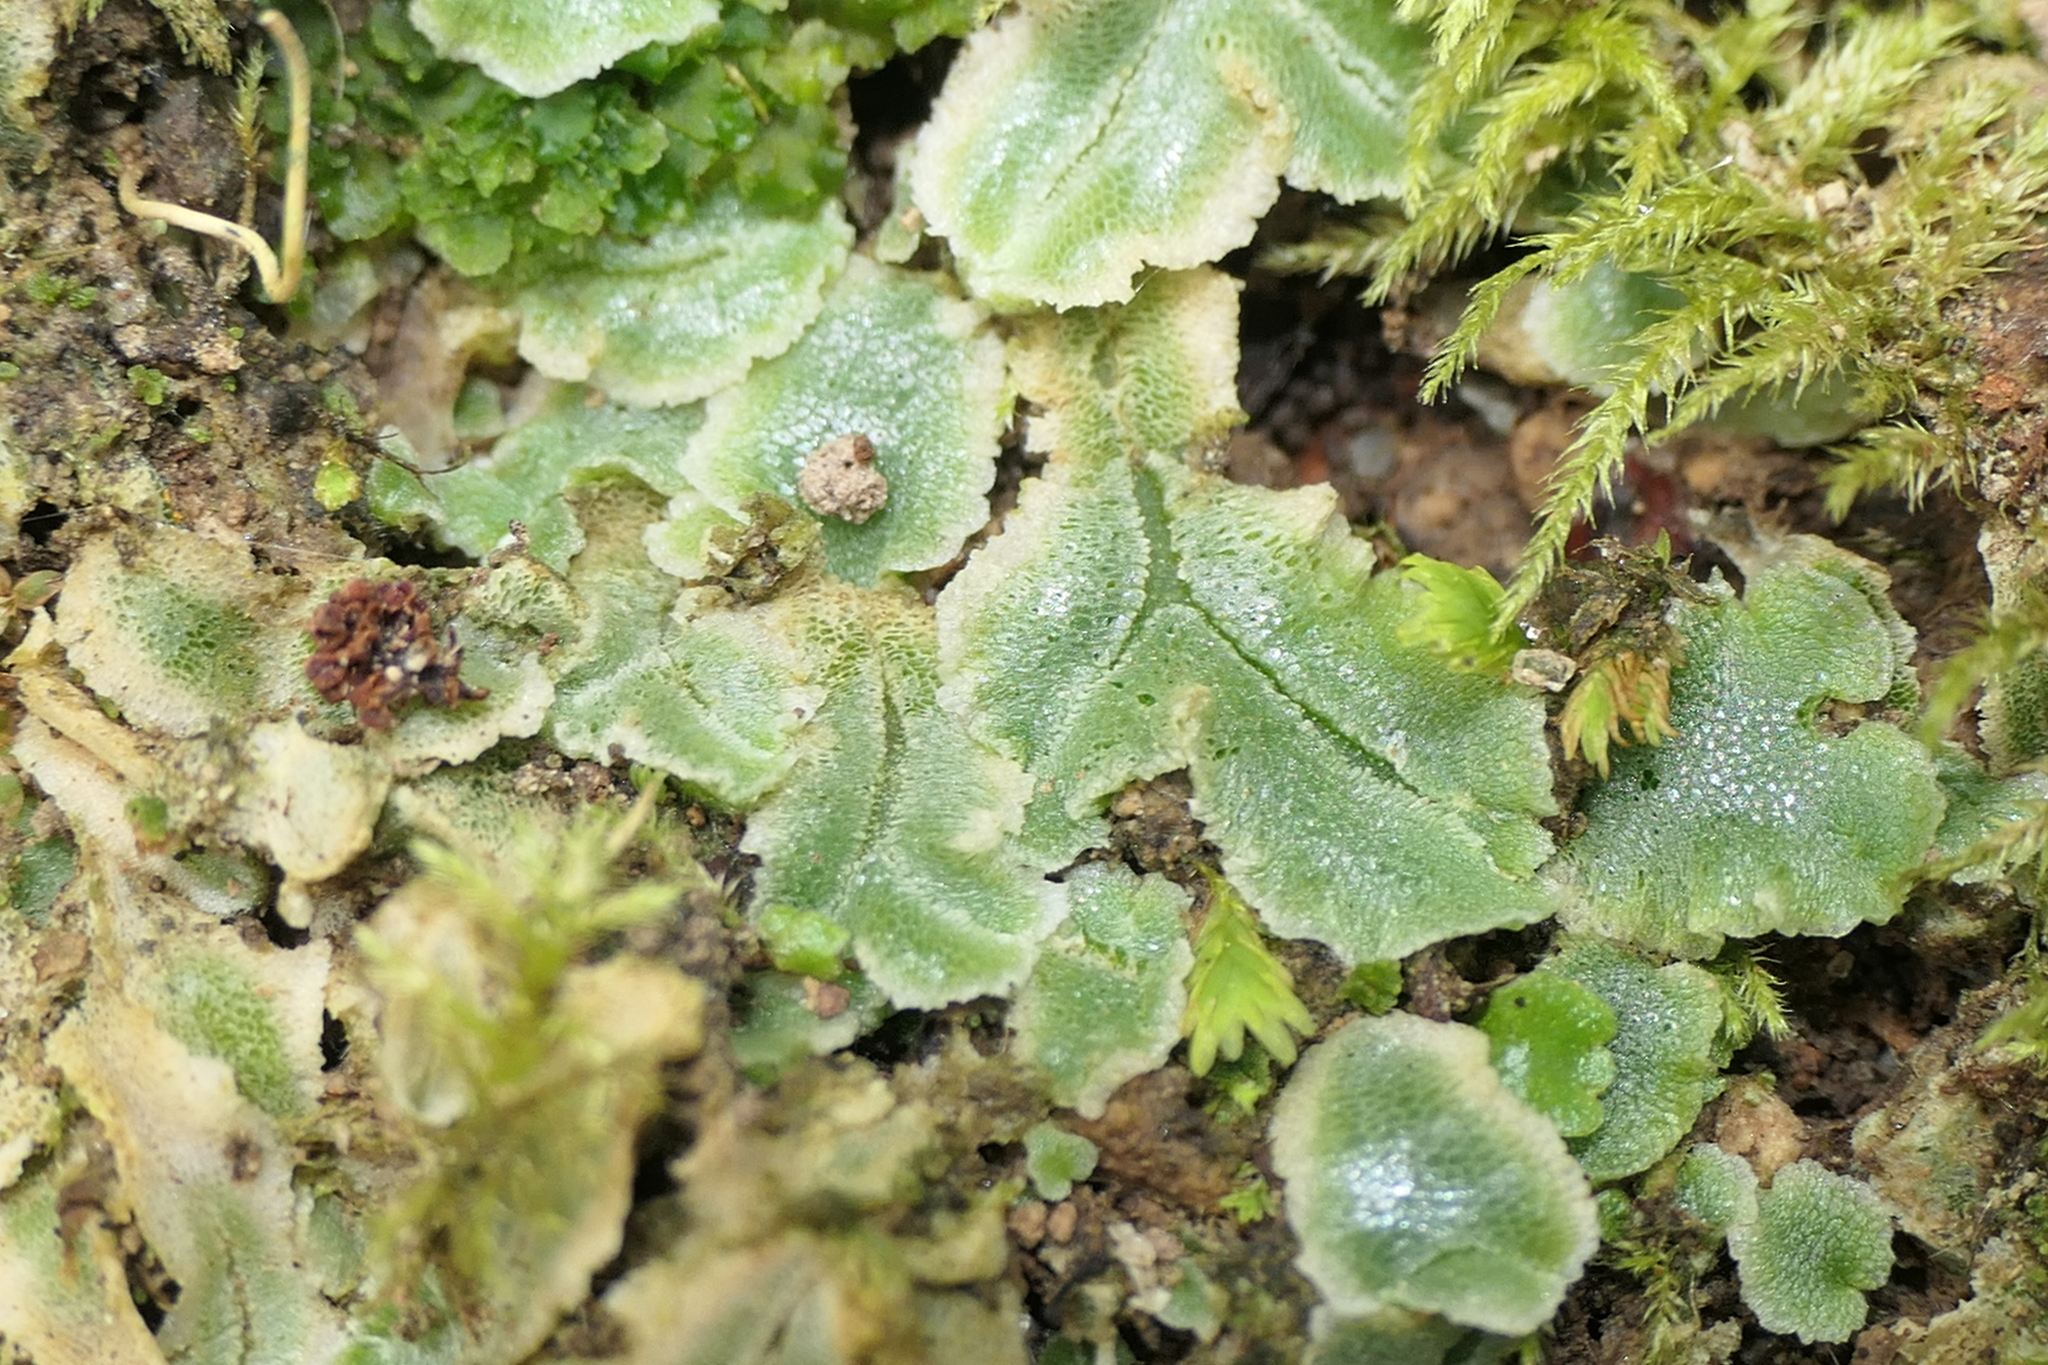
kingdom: Plantae
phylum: Marchantiophyta
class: Marchantiopsida
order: Marchantiales
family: Corsiniaceae
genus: Corsinia
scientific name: Corsinia coriandrina
